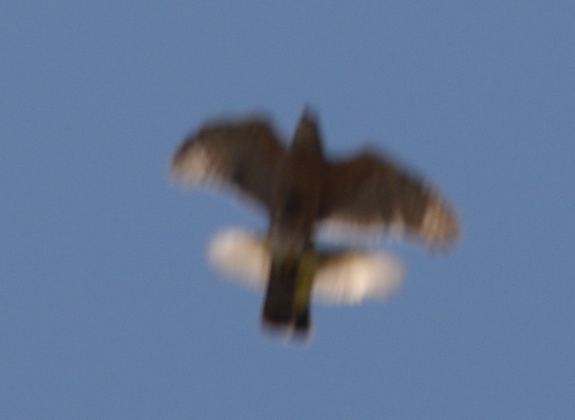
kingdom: Animalia
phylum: Chordata
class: Aves
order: Accipitriformes
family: Accipitridae
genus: Accipiter
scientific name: Accipiter cooperii
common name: Cooper's hawk
